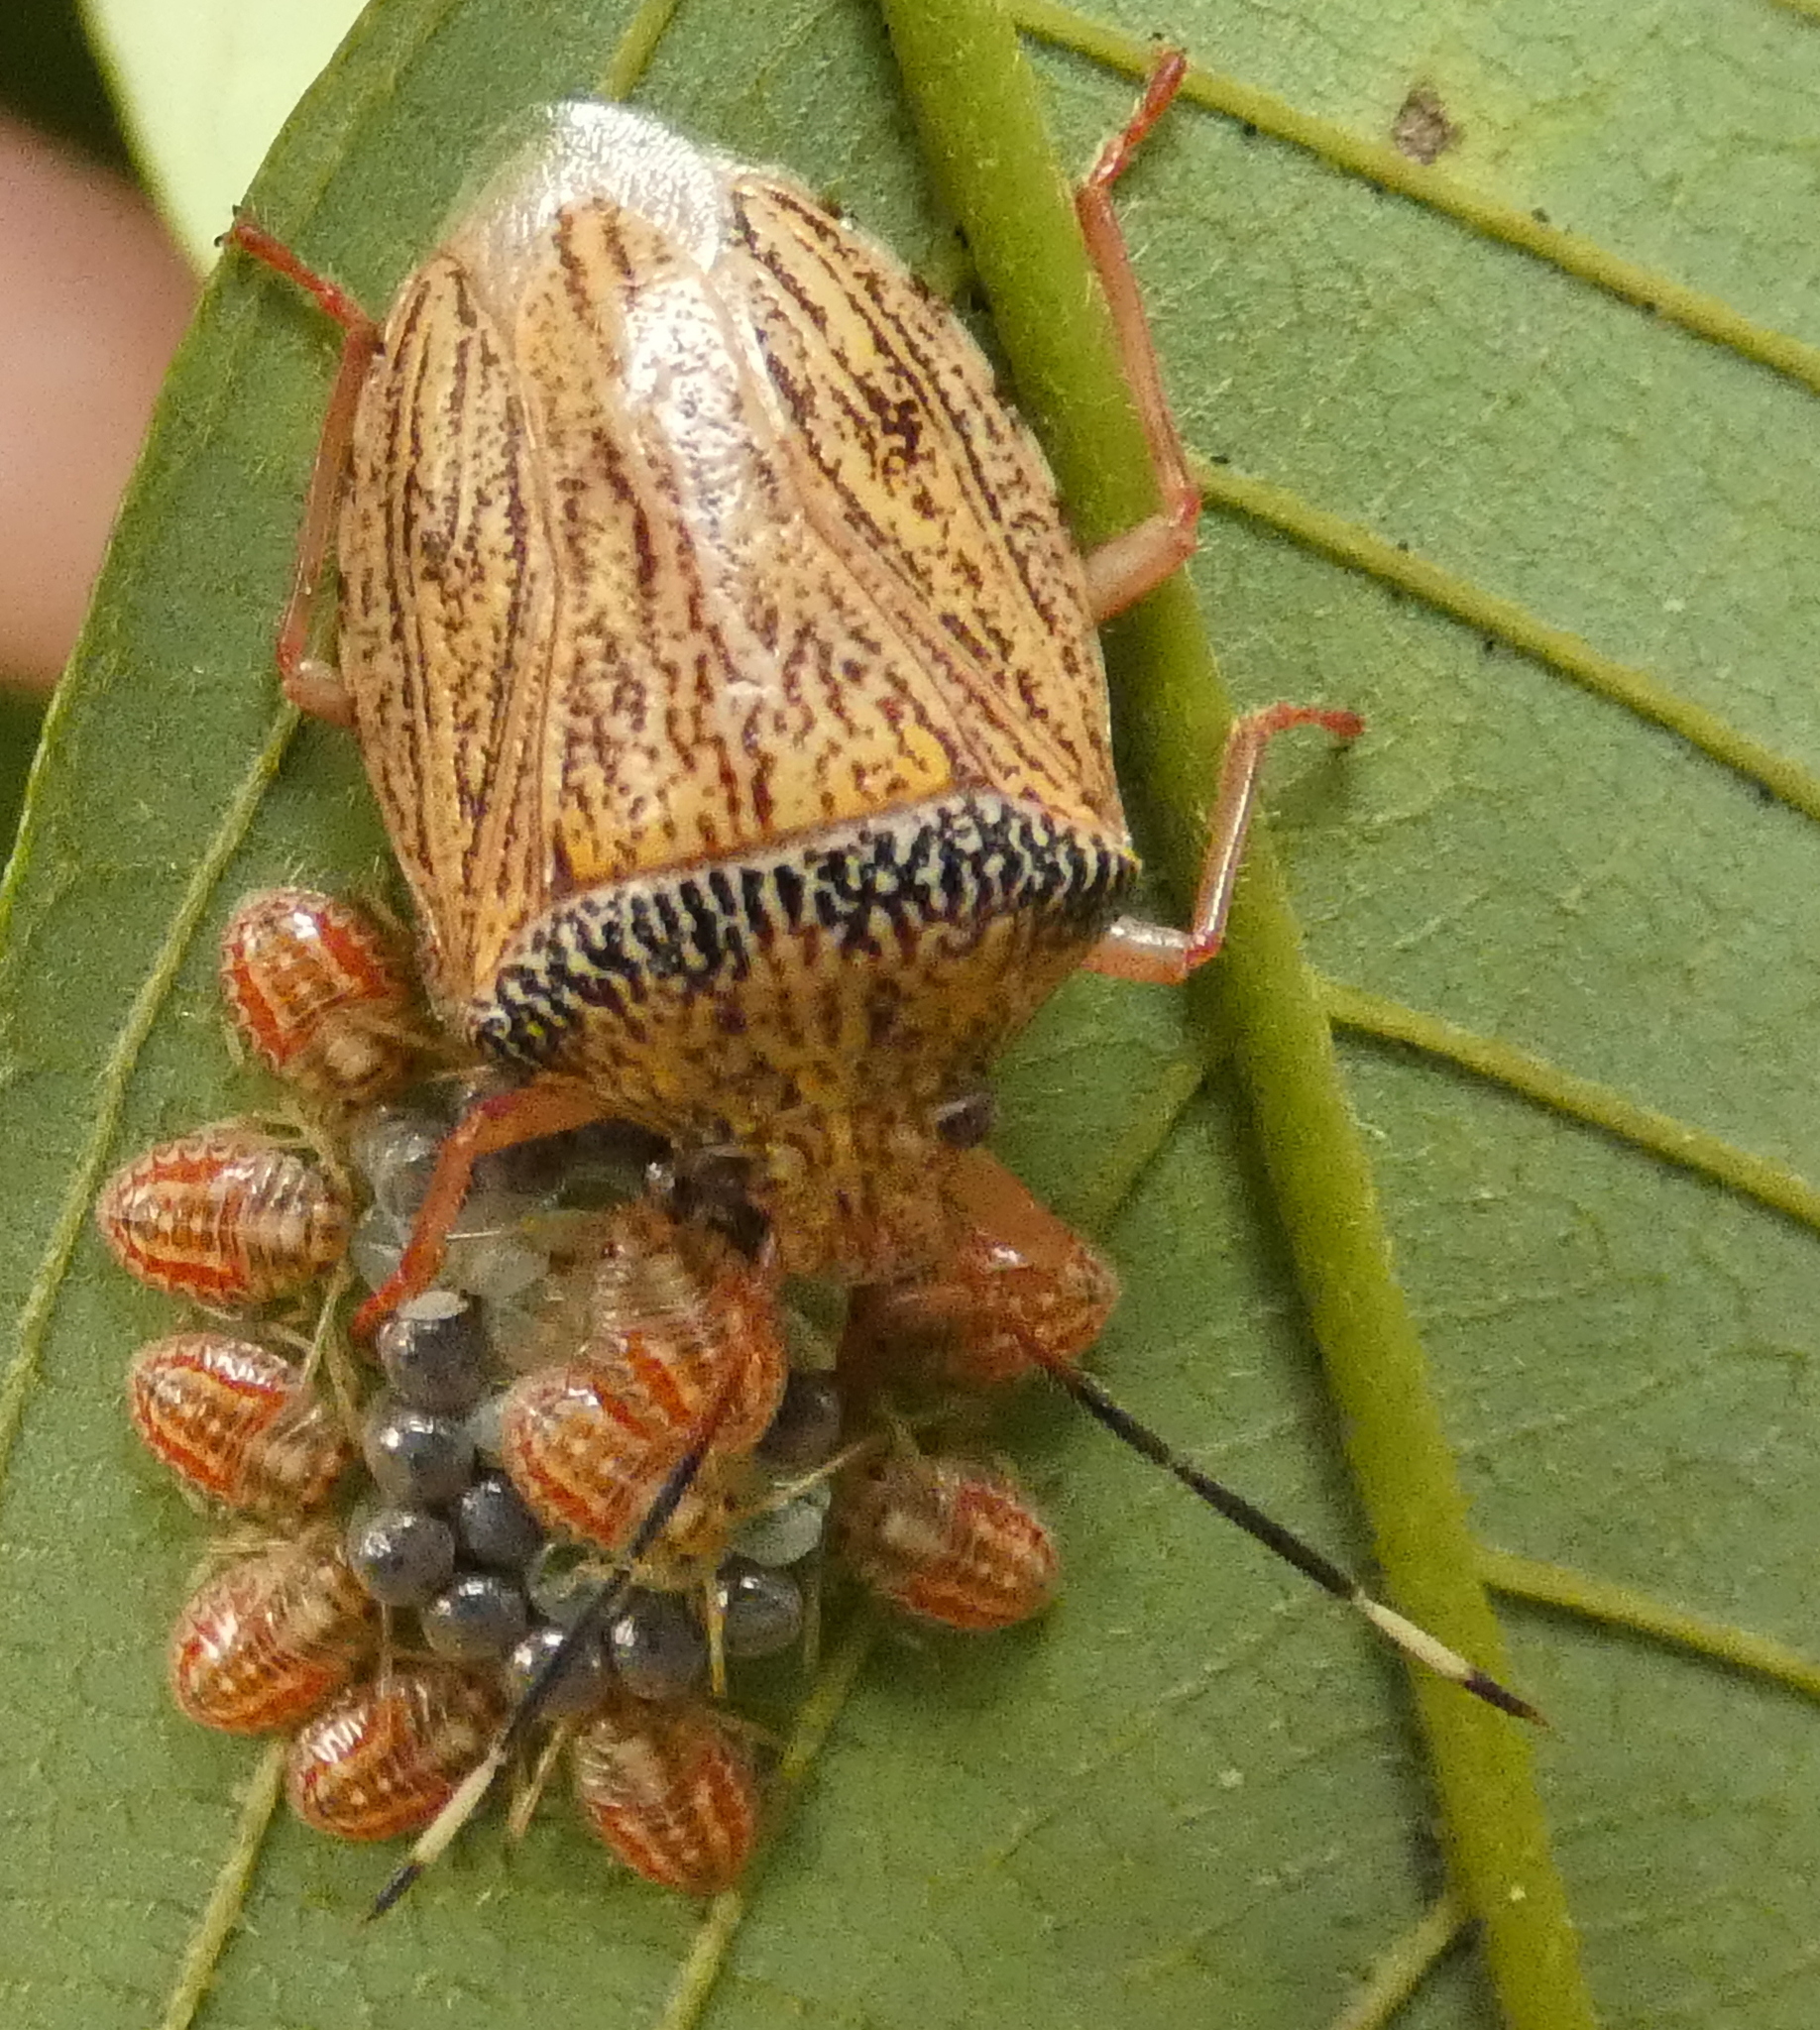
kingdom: Animalia
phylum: Arthropoda
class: Insecta
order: Hemiptera
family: Pentatomidae
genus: Antiteuchus
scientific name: Antiteuchus macraspis
